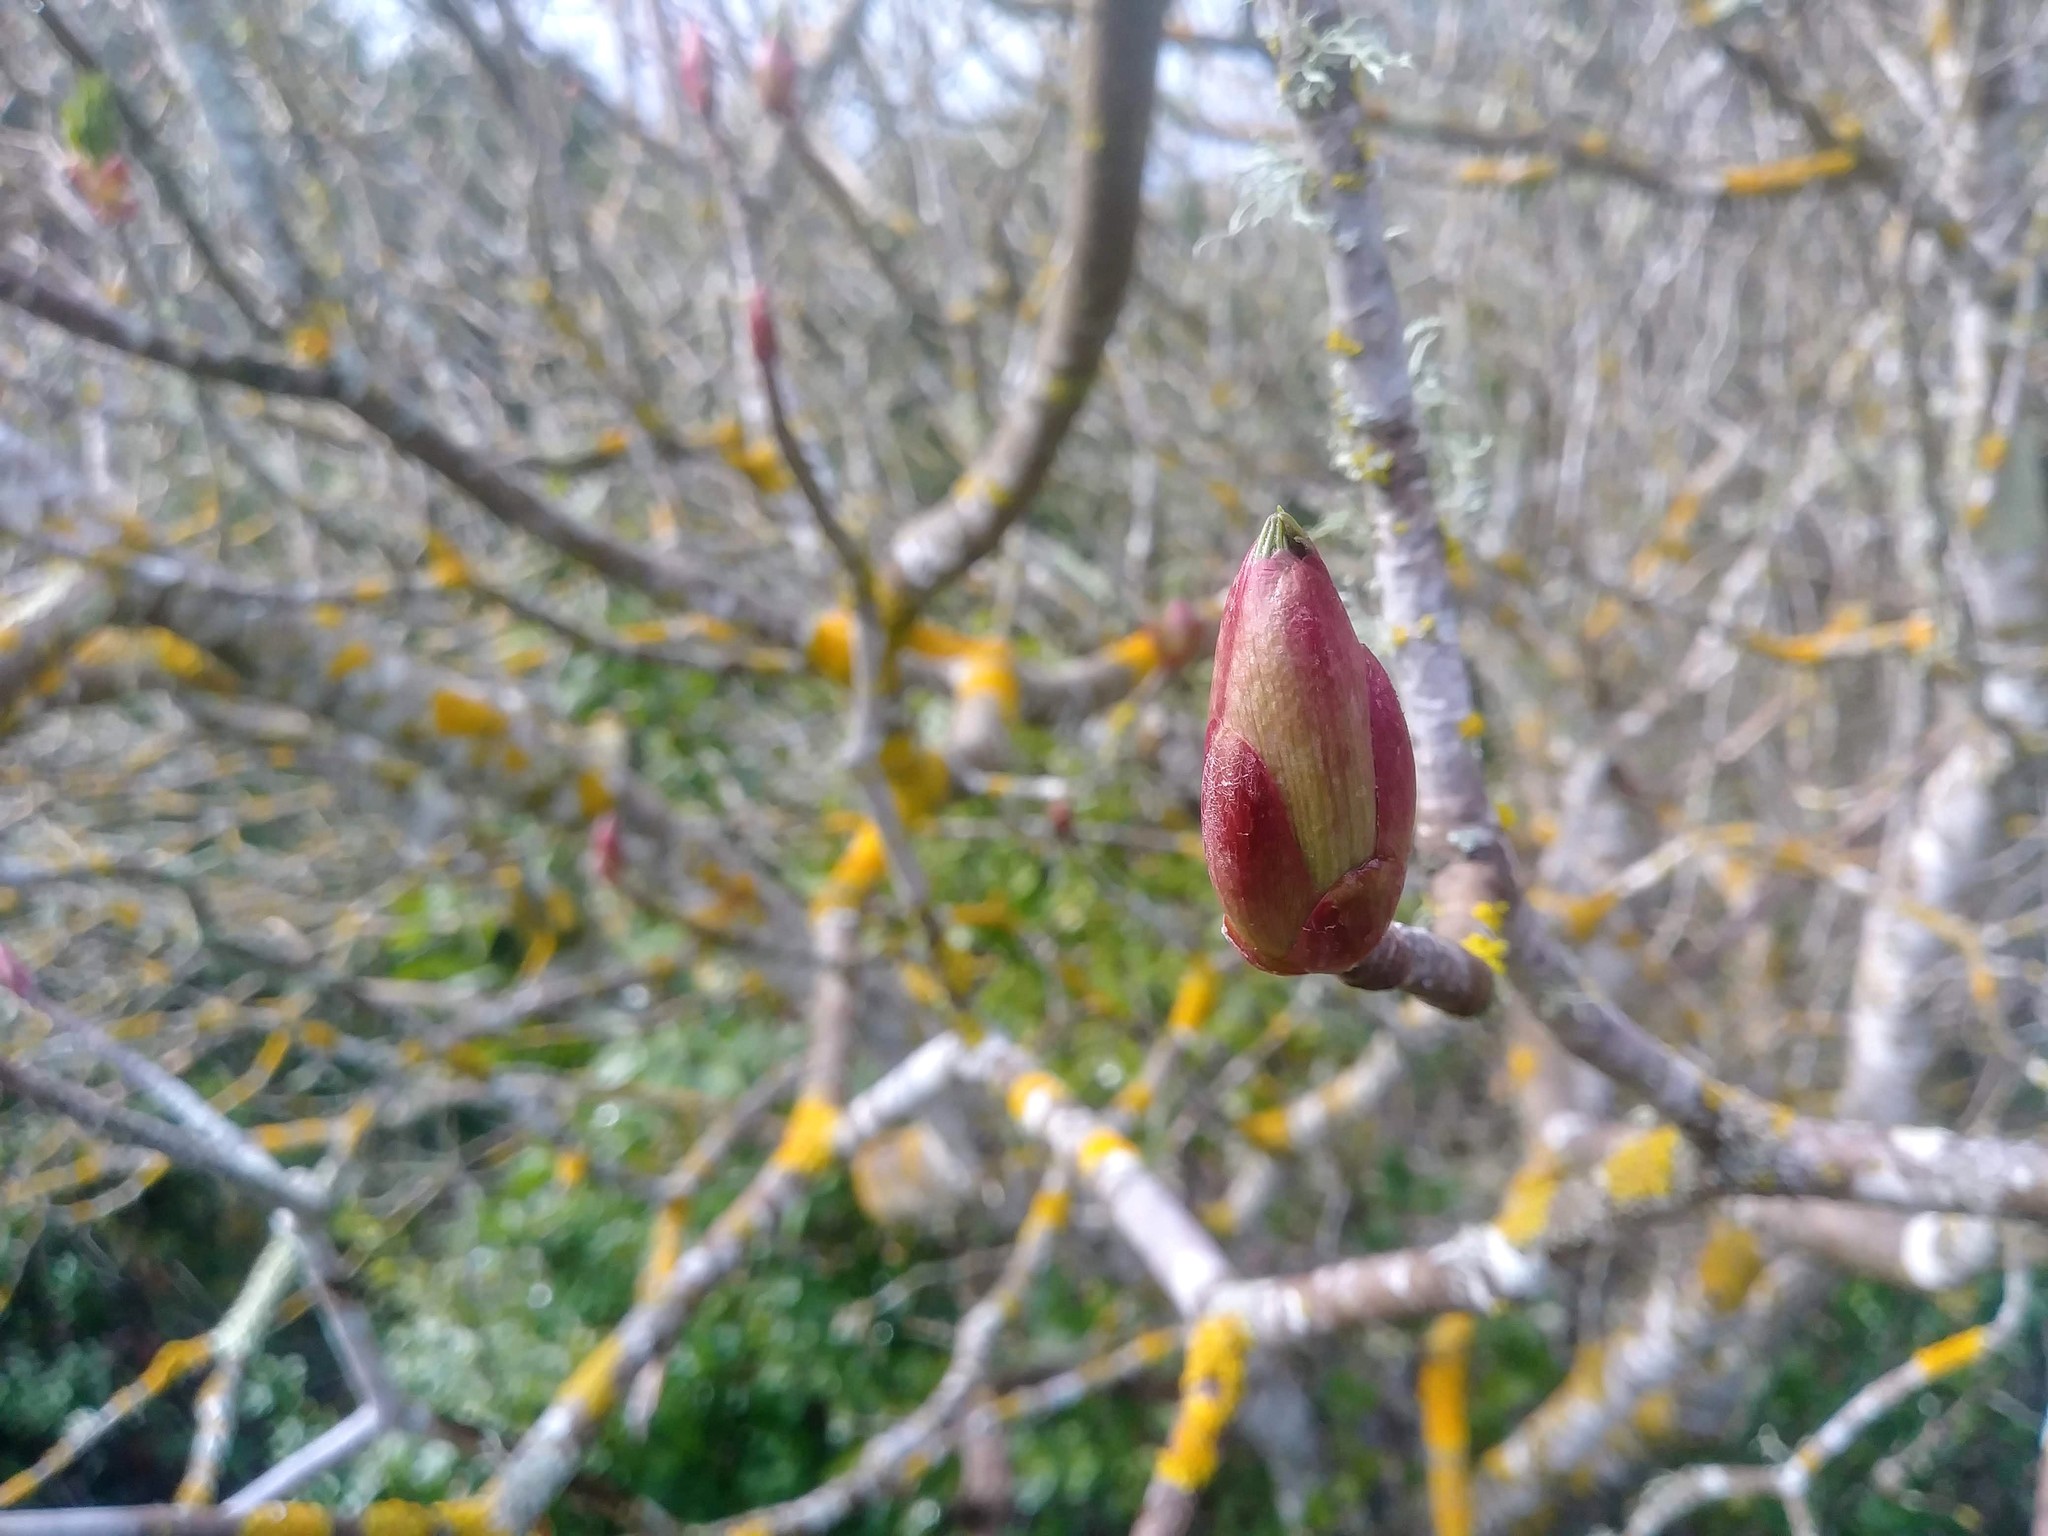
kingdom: Plantae
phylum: Tracheophyta
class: Magnoliopsida
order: Sapindales
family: Sapindaceae
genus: Aesculus
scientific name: Aesculus californica
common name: California buckeye
